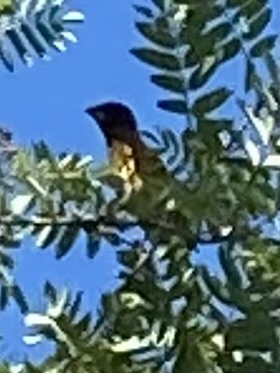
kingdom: Animalia
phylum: Chordata
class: Aves
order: Passeriformes
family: Cardinalidae
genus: Pheucticus
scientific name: Pheucticus melanocephalus
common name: Black-headed grosbeak
